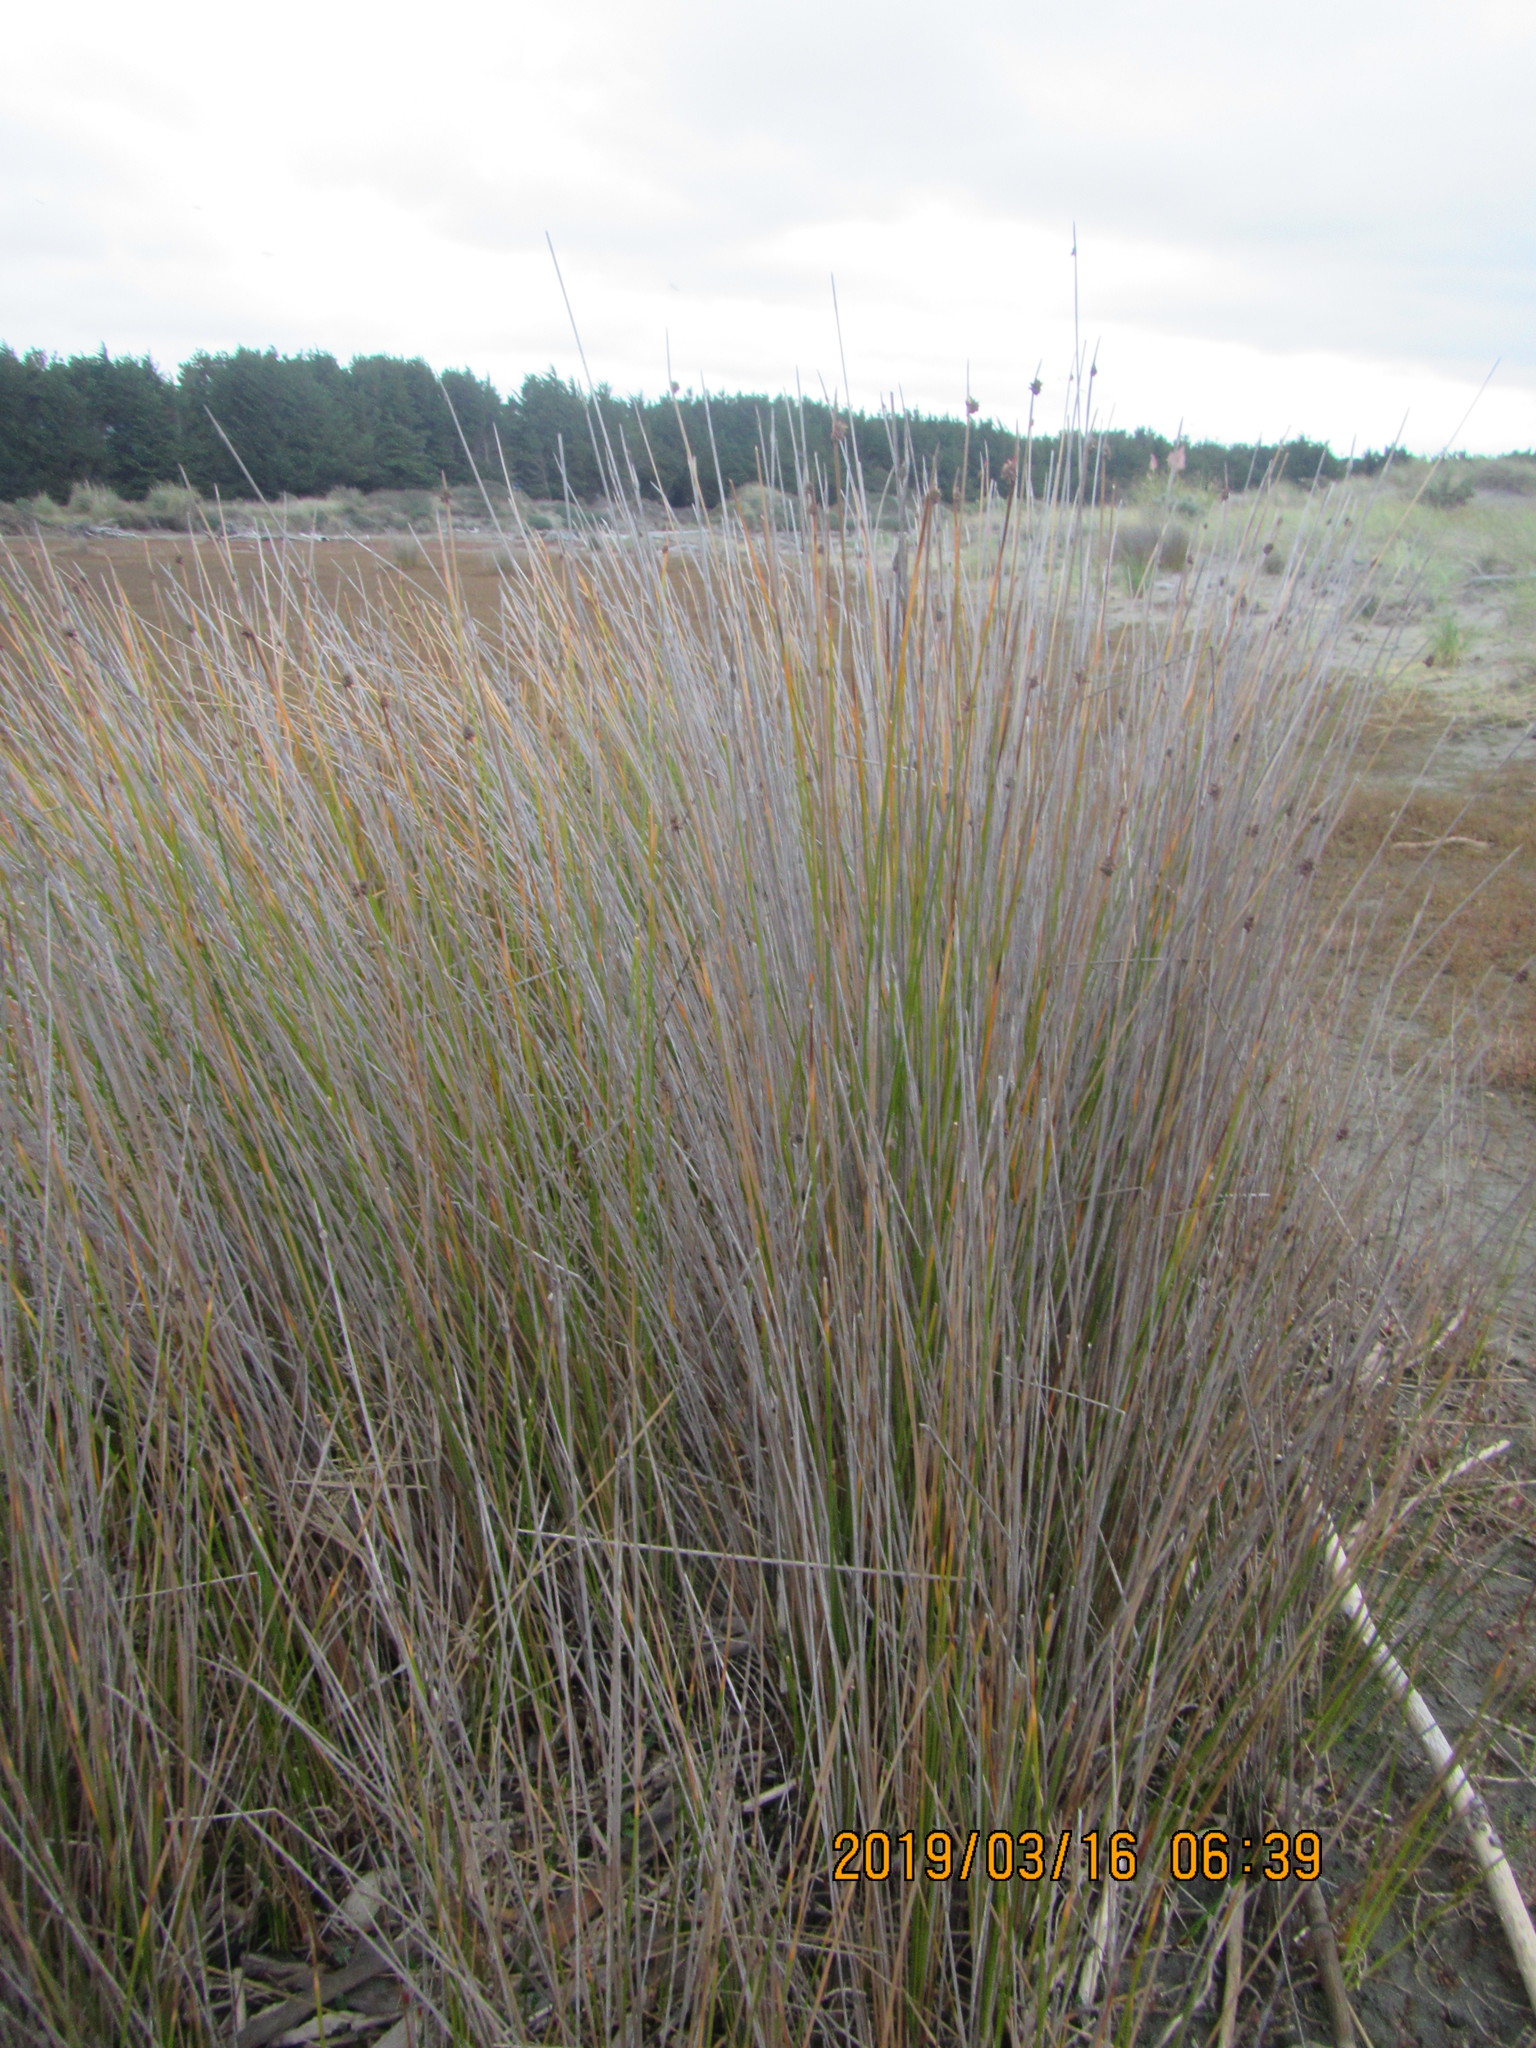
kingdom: Plantae
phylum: Tracheophyta
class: Liliopsida
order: Poales
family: Cyperaceae
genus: Ficinia
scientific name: Ficinia nodosa
